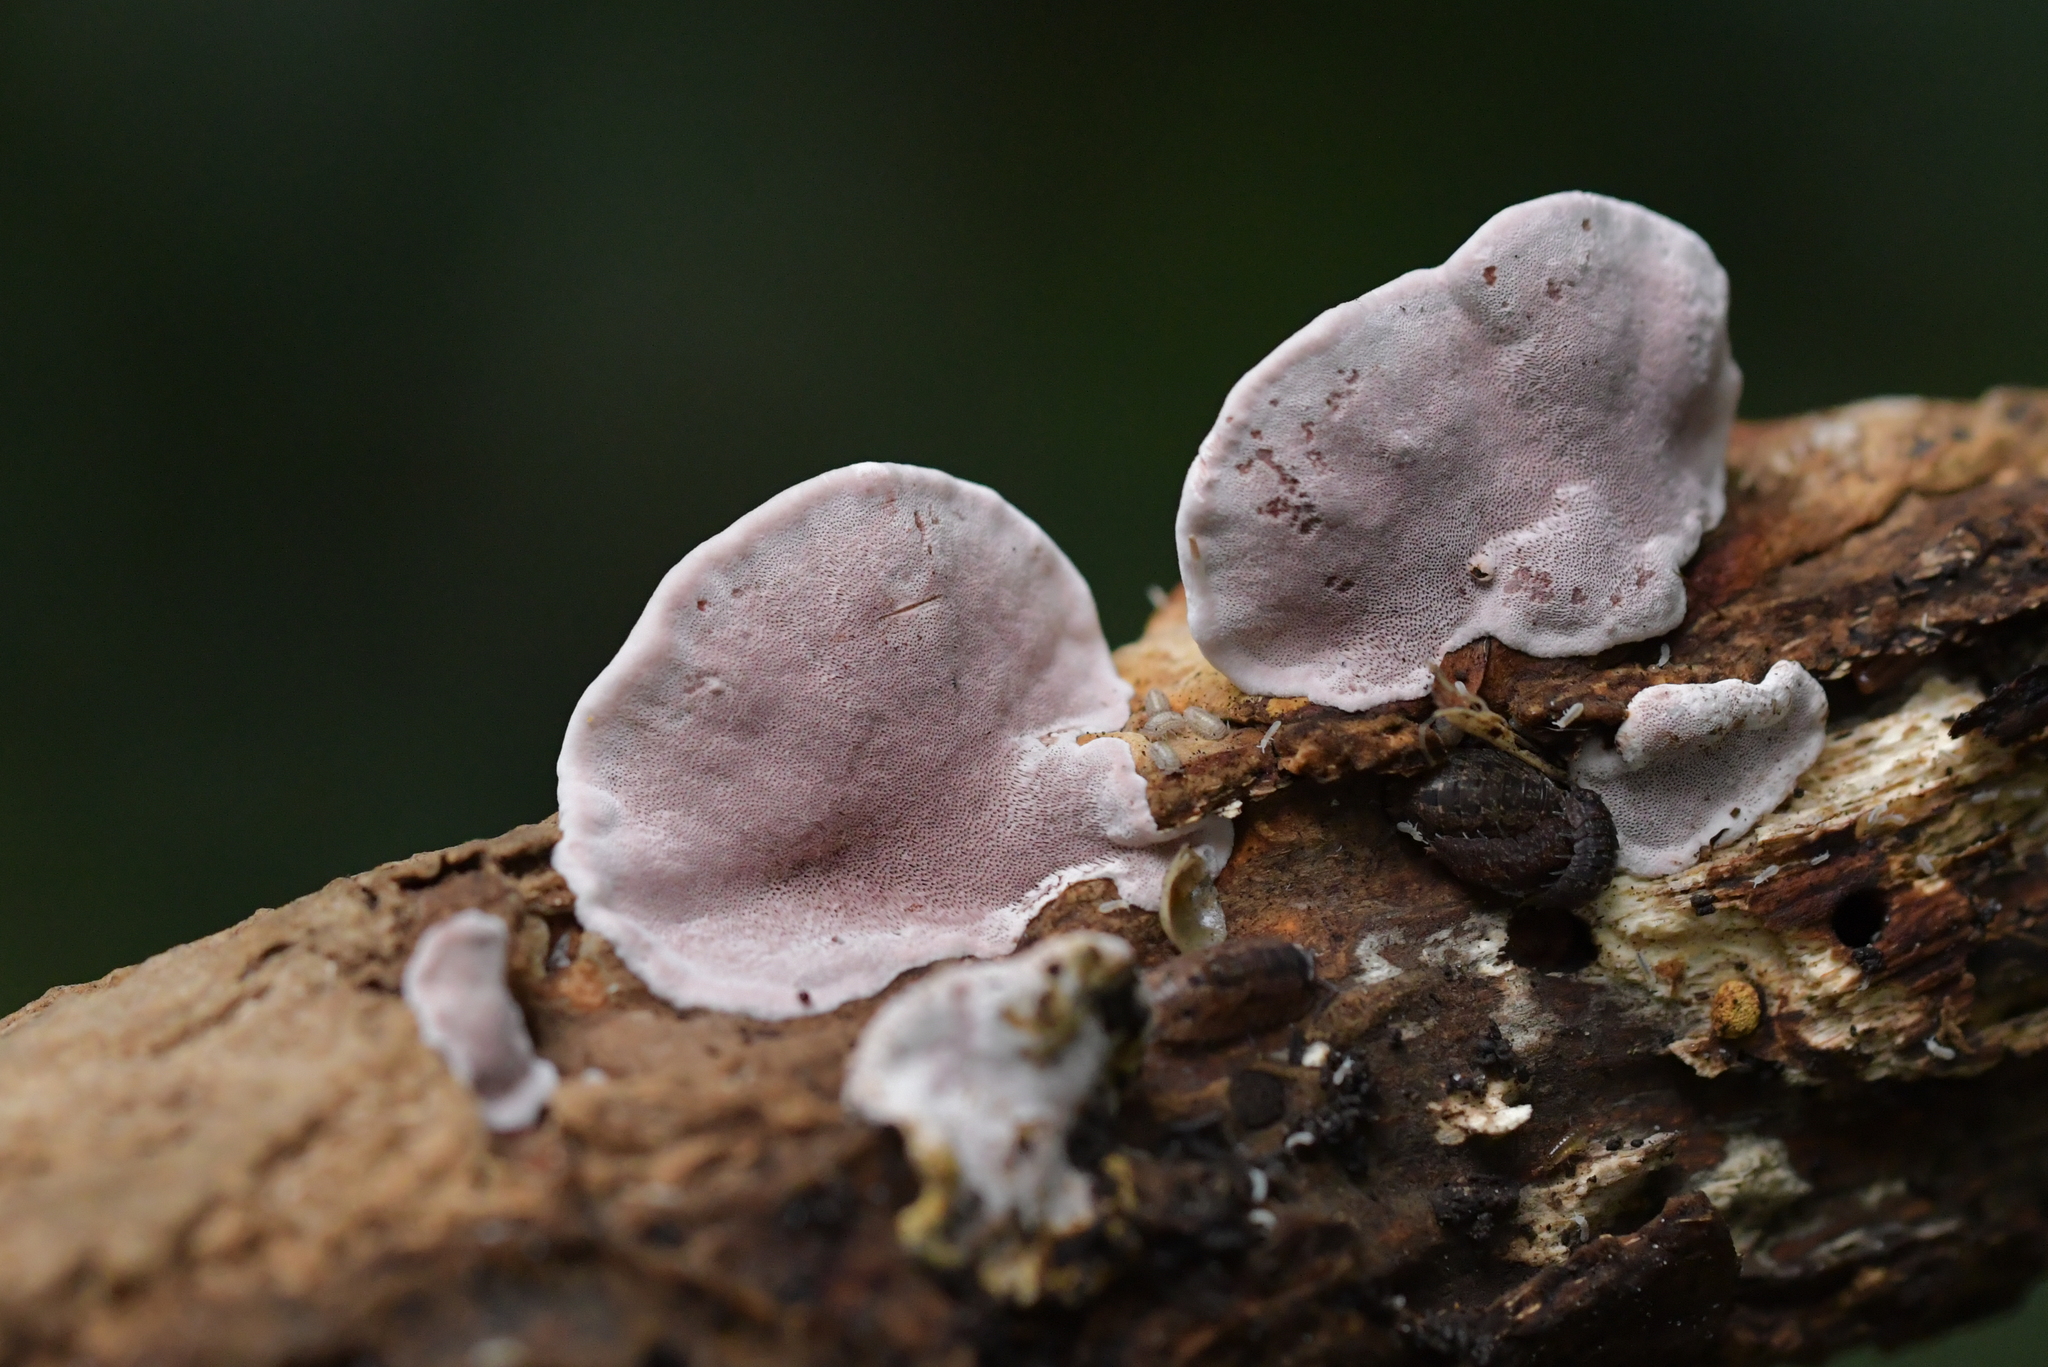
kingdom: Fungi
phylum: Basidiomycota
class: Agaricomycetes
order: Polyporales
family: Irpicaceae
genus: Vitreoporus
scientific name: Vitreoporus dichrous
